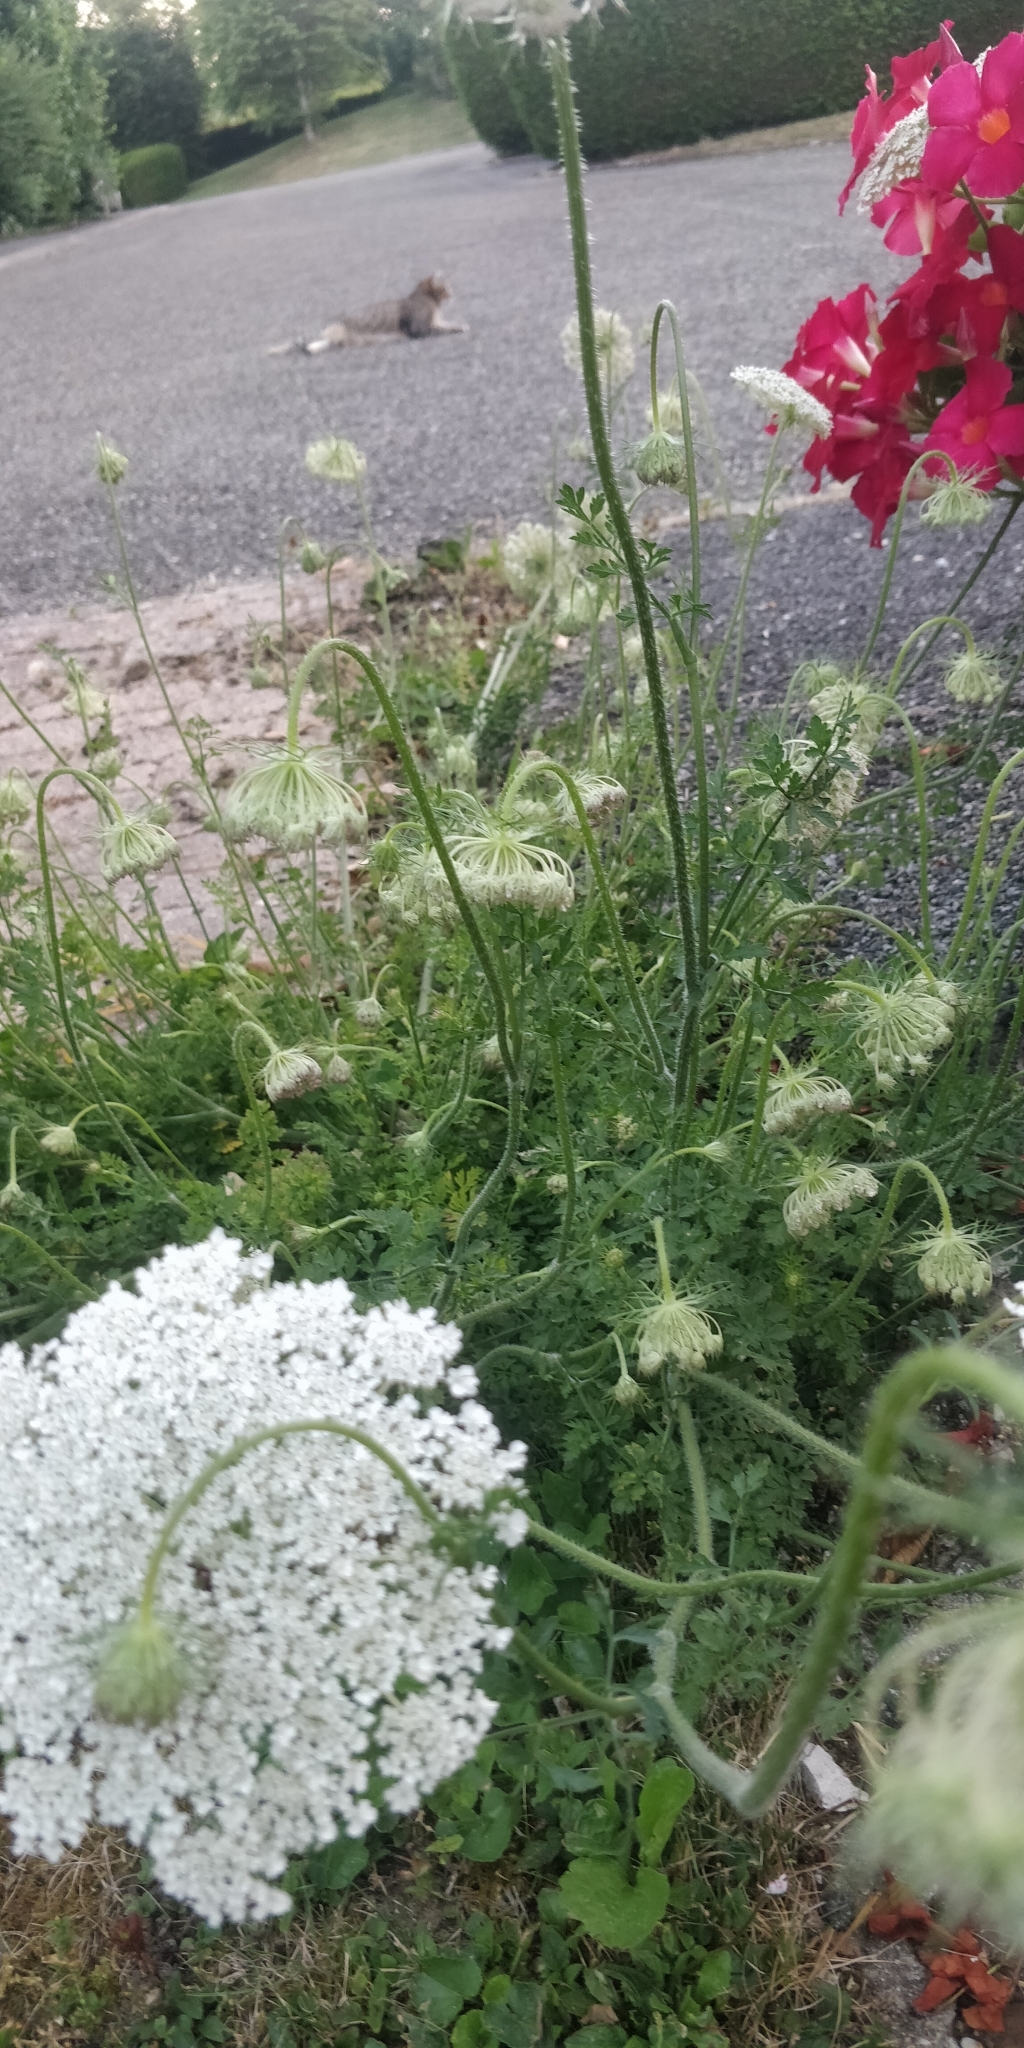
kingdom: Plantae
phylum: Tracheophyta
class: Magnoliopsida
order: Apiales
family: Apiaceae
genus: Daucus
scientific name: Daucus carota
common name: Wild carrot
